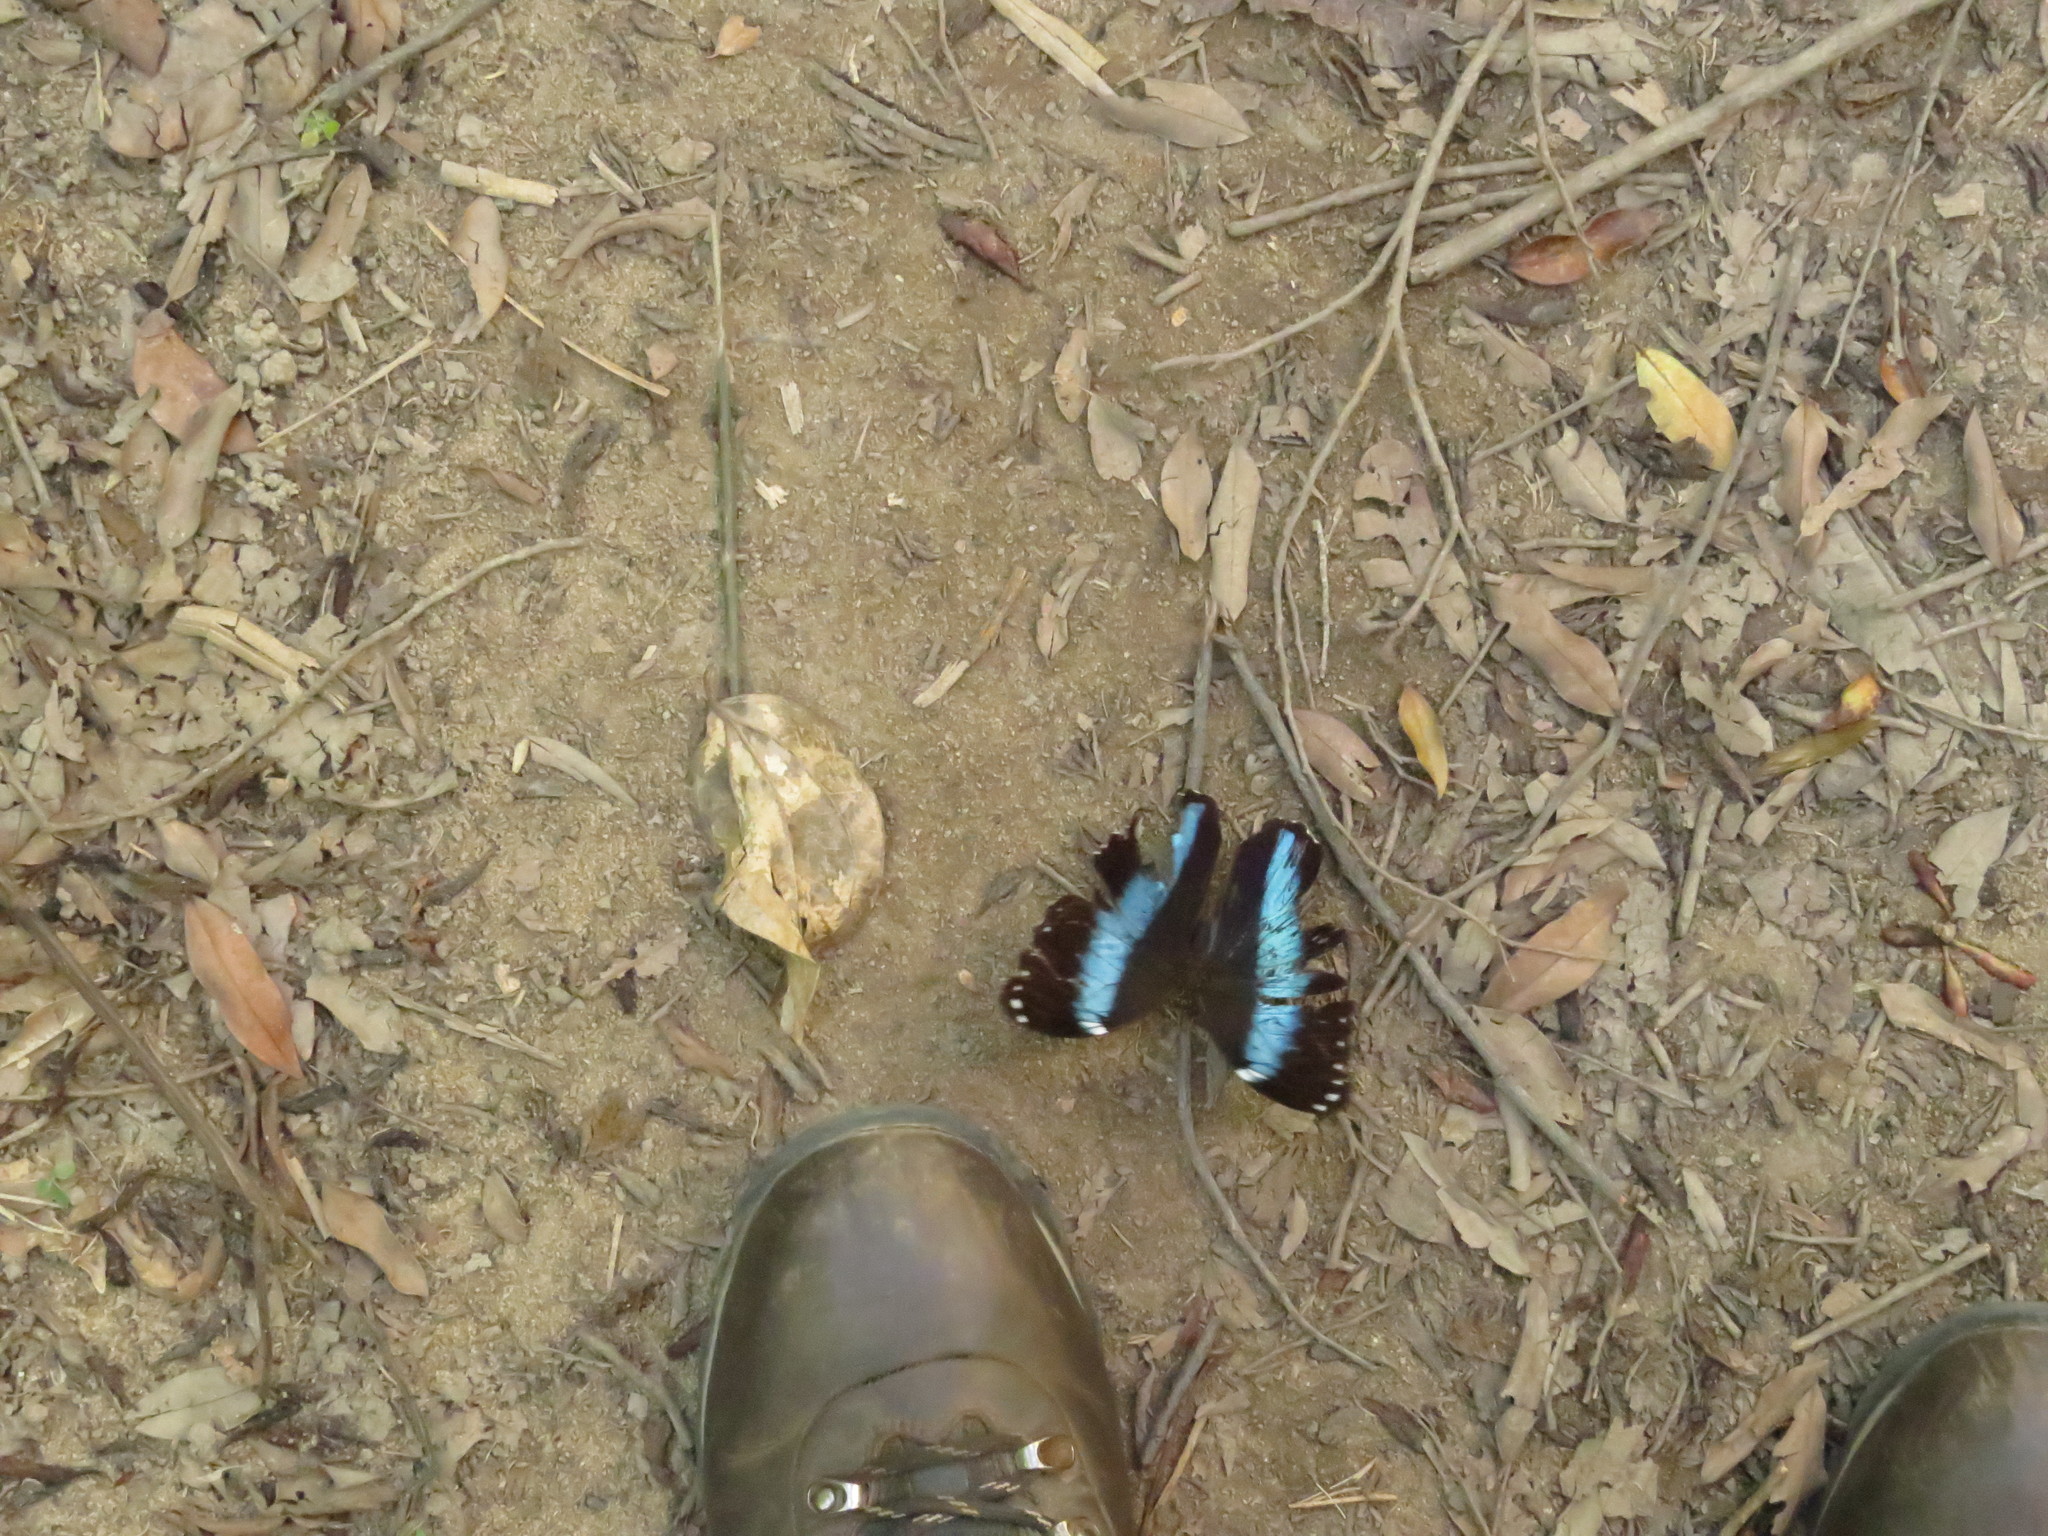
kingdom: Animalia
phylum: Arthropoda
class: Insecta
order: Lepidoptera
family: Nymphalidae
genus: Morpho
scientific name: Morpho helenor
